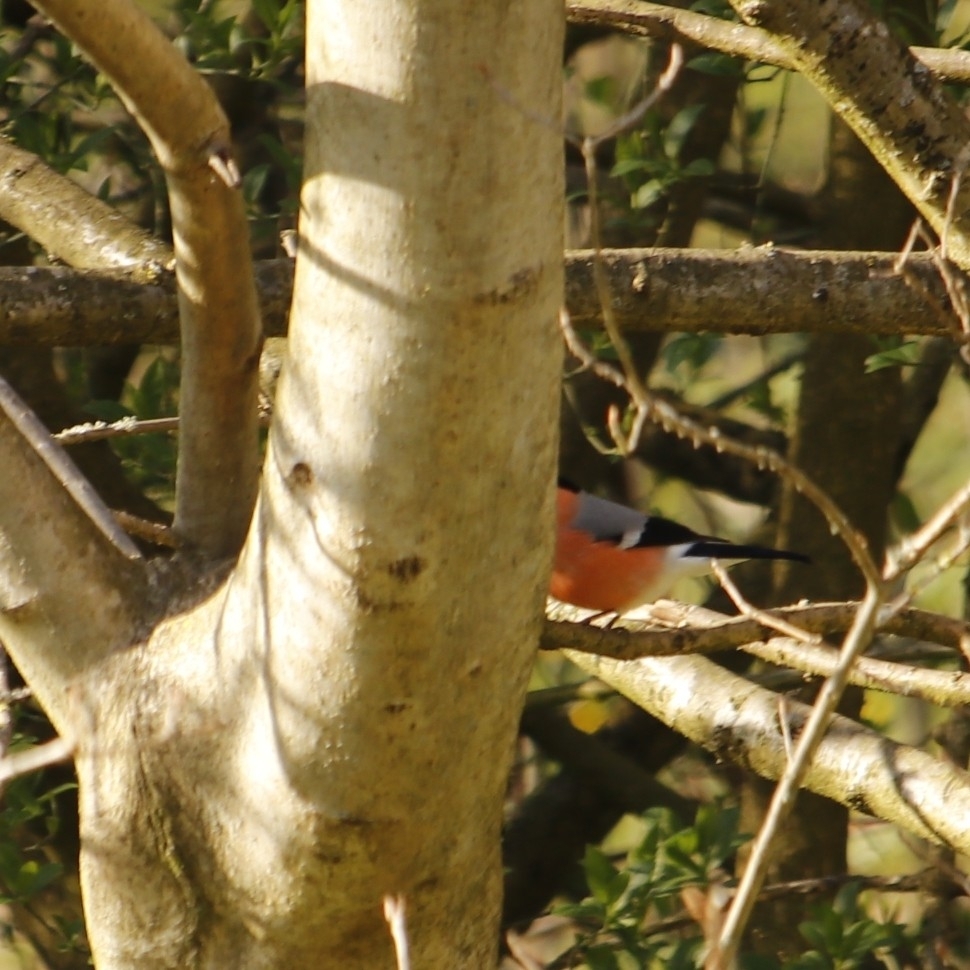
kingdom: Animalia
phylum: Chordata
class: Aves
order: Passeriformes
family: Fringillidae
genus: Pyrrhula
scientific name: Pyrrhula pyrrhula
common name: Eurasian bullfinch
